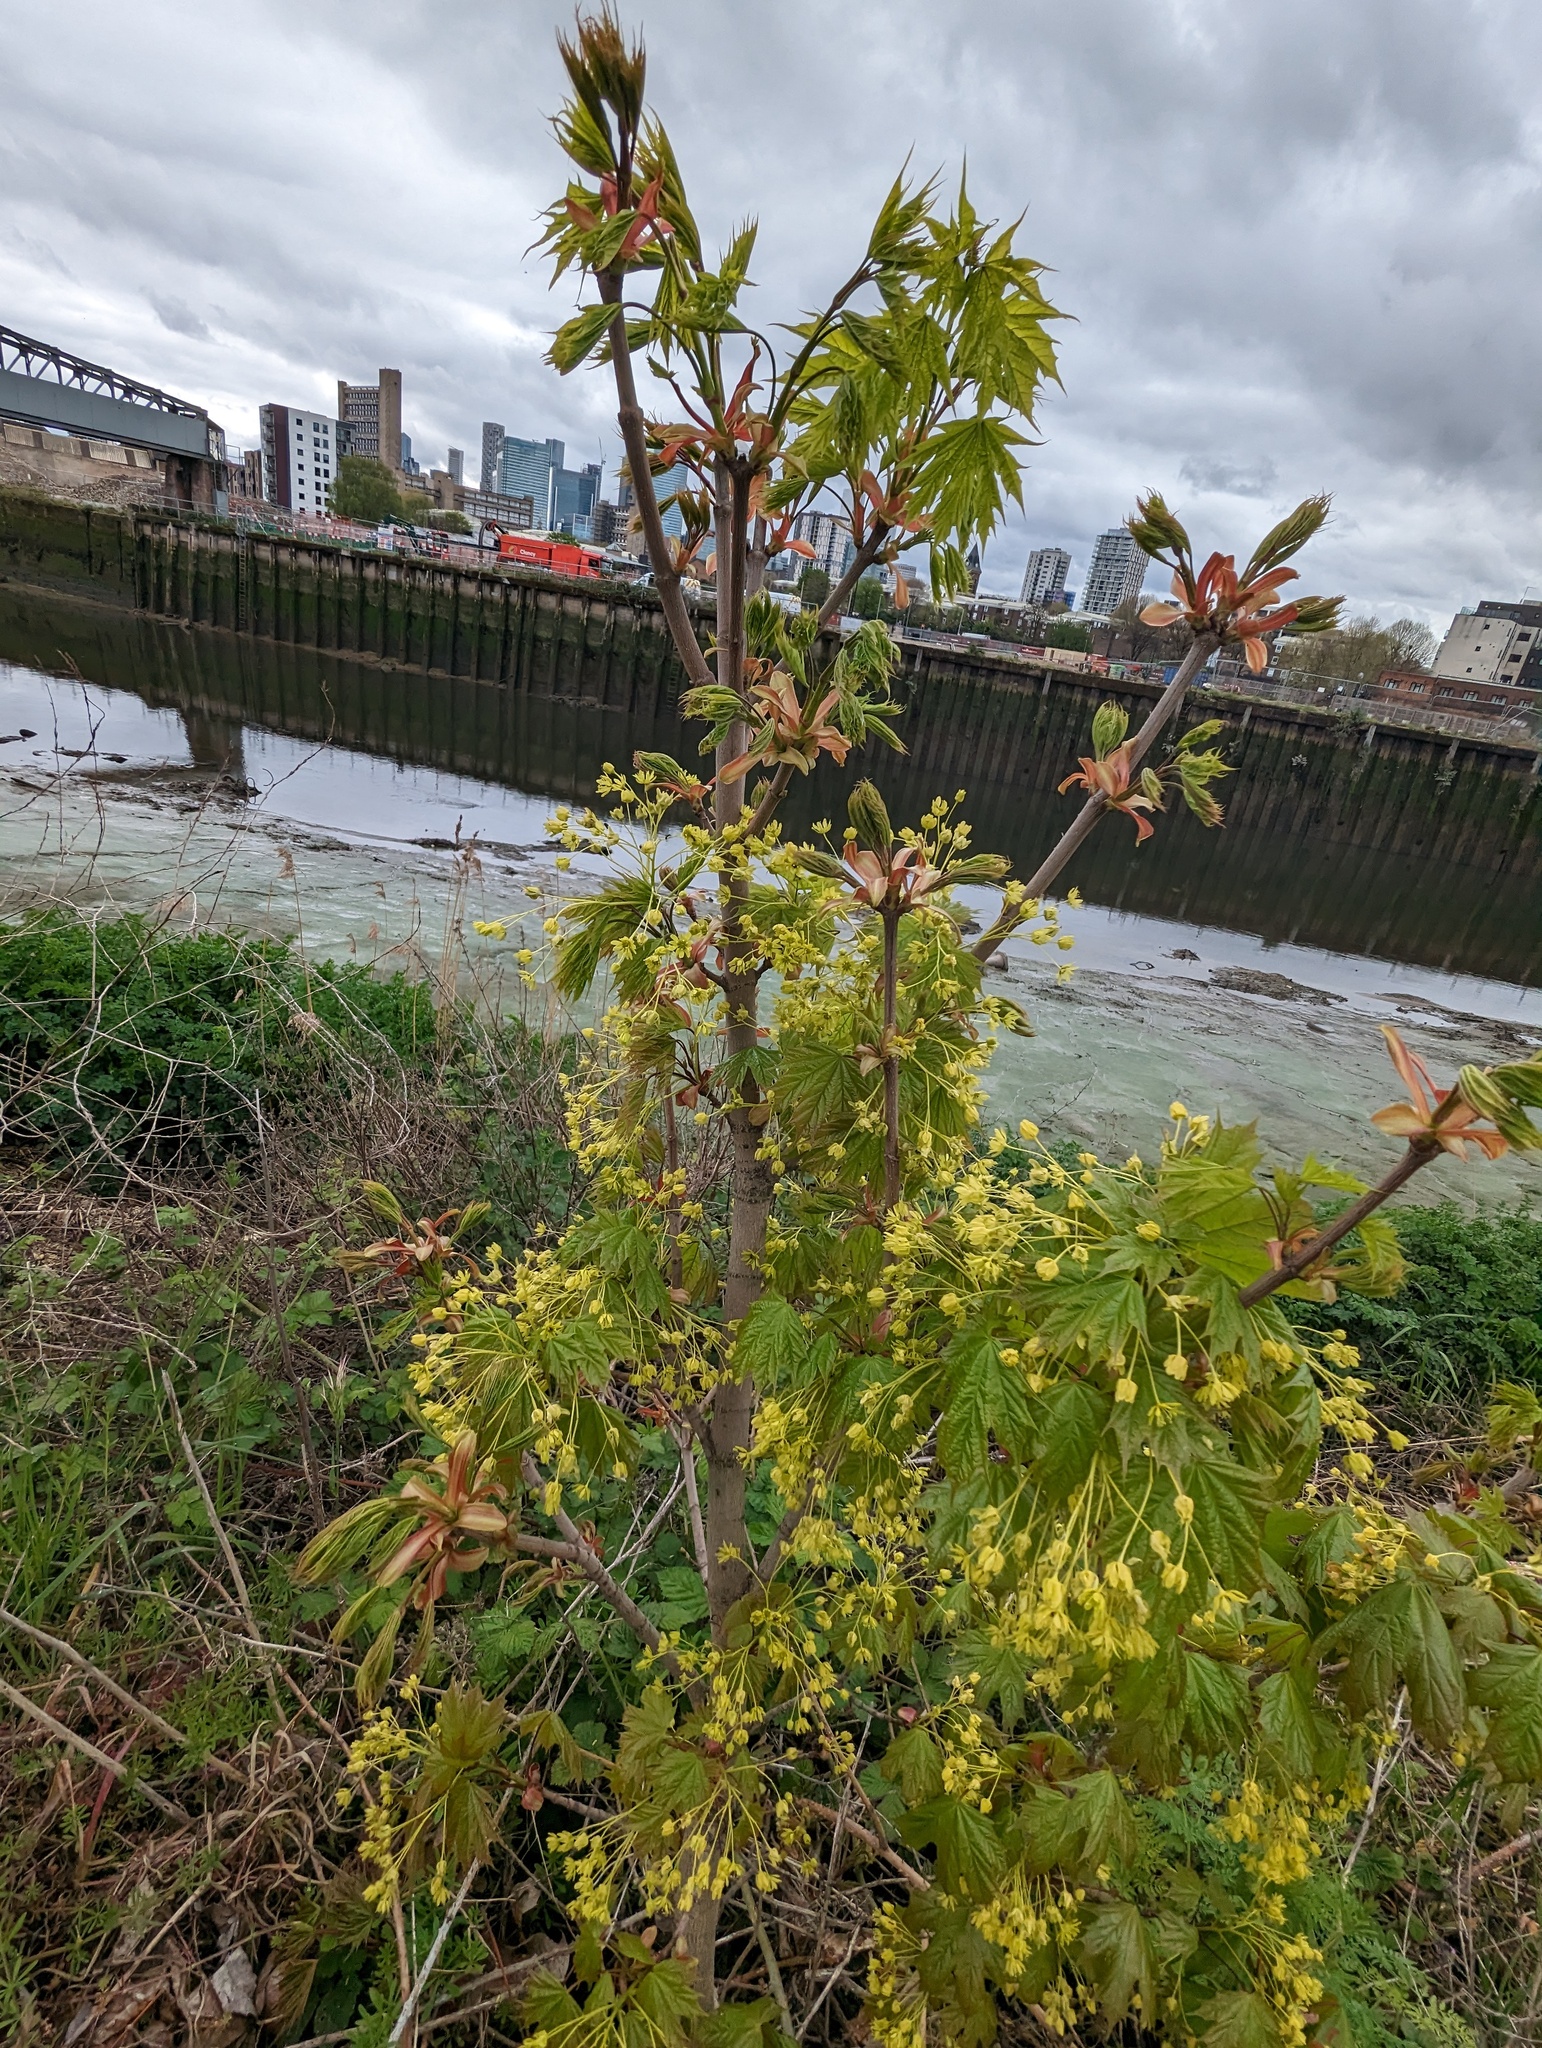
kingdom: Plantae
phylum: Tracheophyta
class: Magnoliopsida
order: Sapindales
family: Sapindaceae
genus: Acer
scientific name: Acer platanoides
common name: Norway maple
